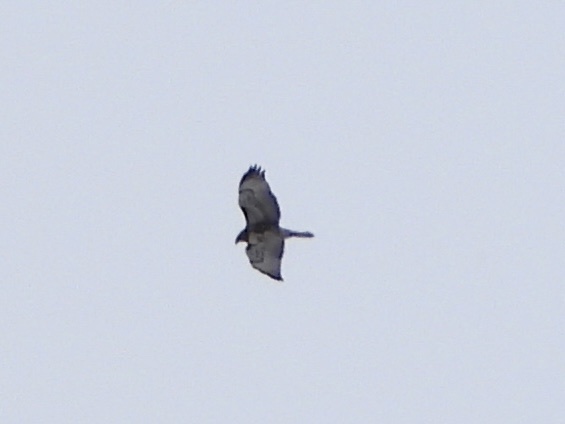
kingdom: Animalia
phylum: Chordata
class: Aves
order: Accipitriformes
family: Accipitridae
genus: Buteo
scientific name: Buteo jamaicensis
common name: Red-tailed hawk
